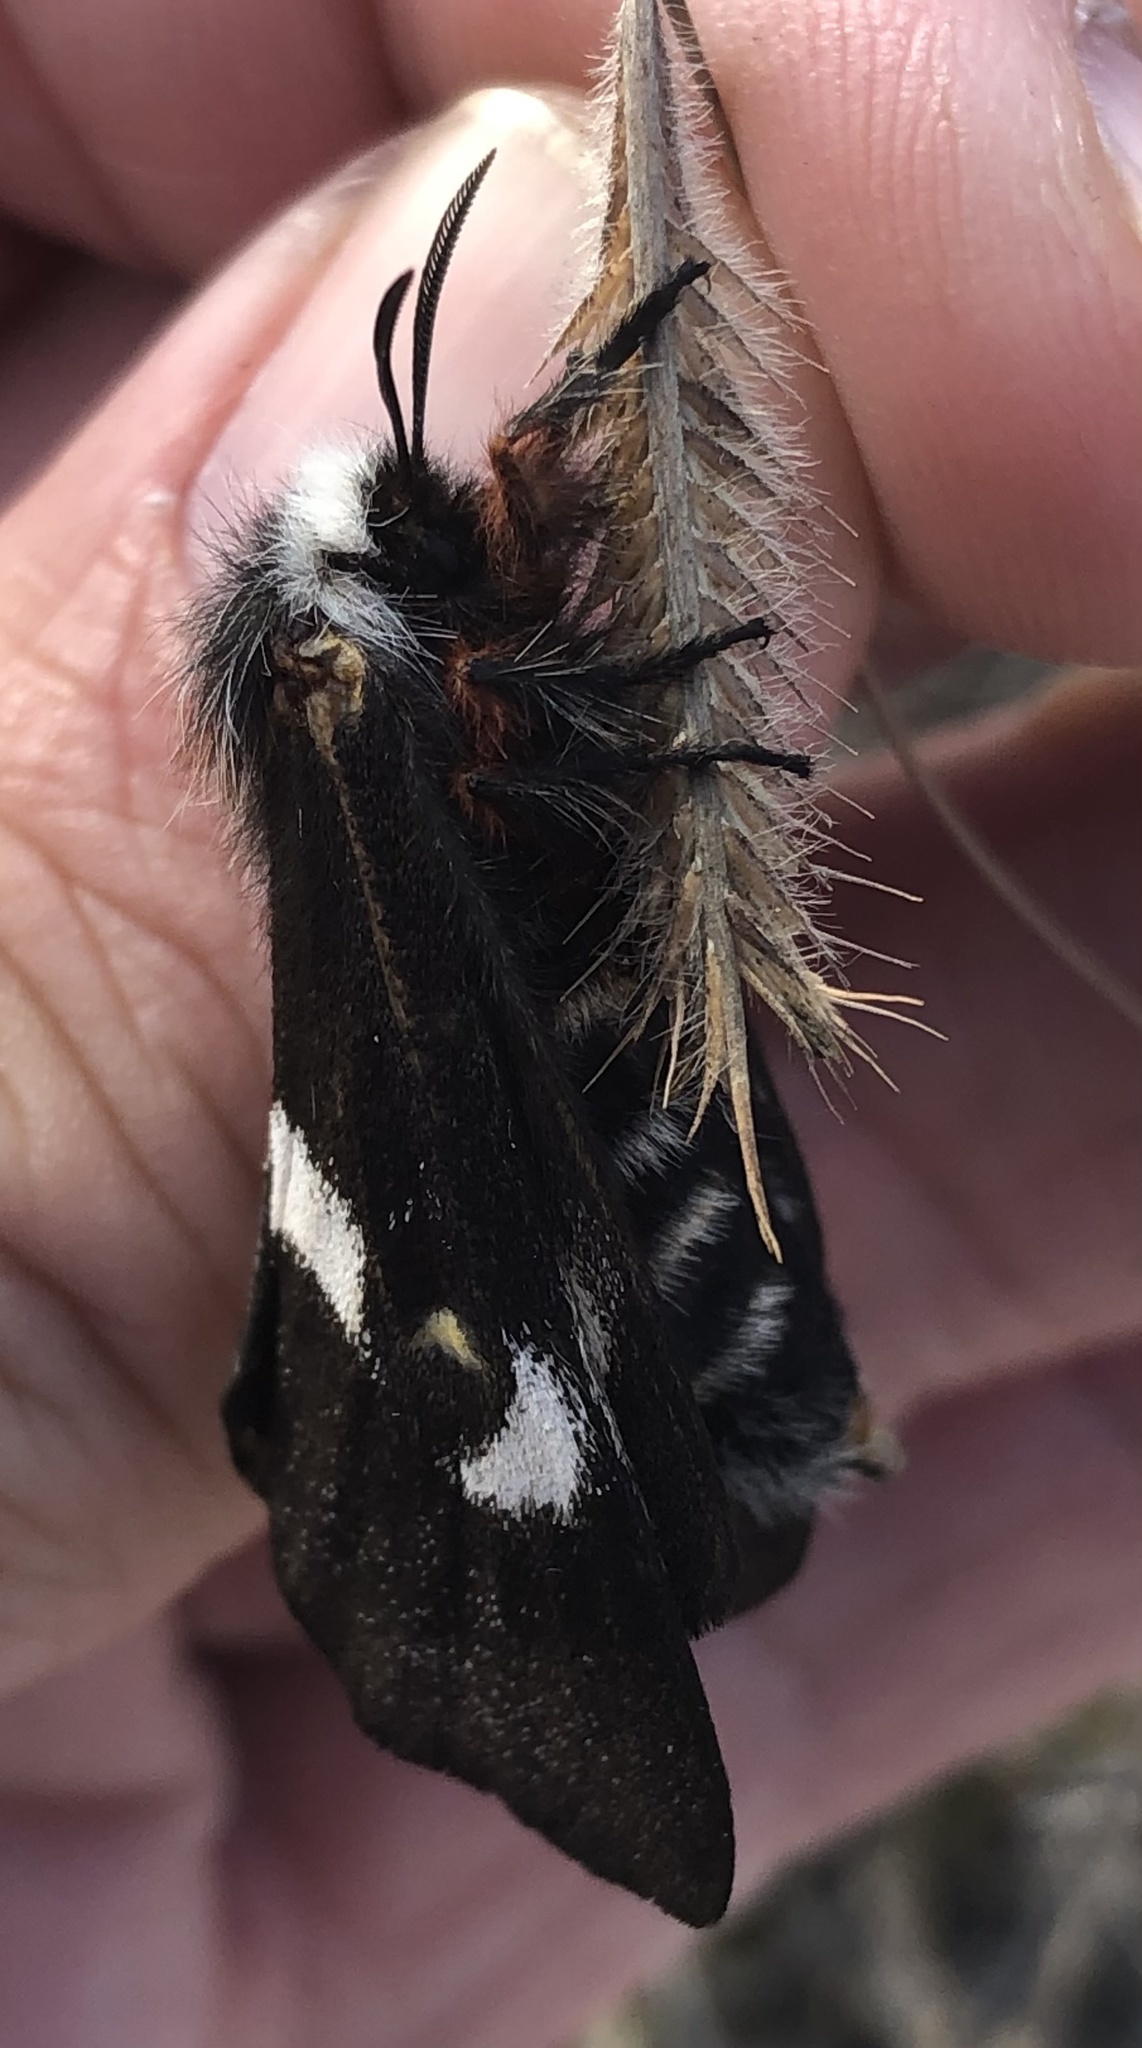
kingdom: Animalia
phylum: Arthropoda
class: Insecta
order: Lepidoptera
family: Saturniidae
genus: Hemileuca
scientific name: Hemileuca grotei
